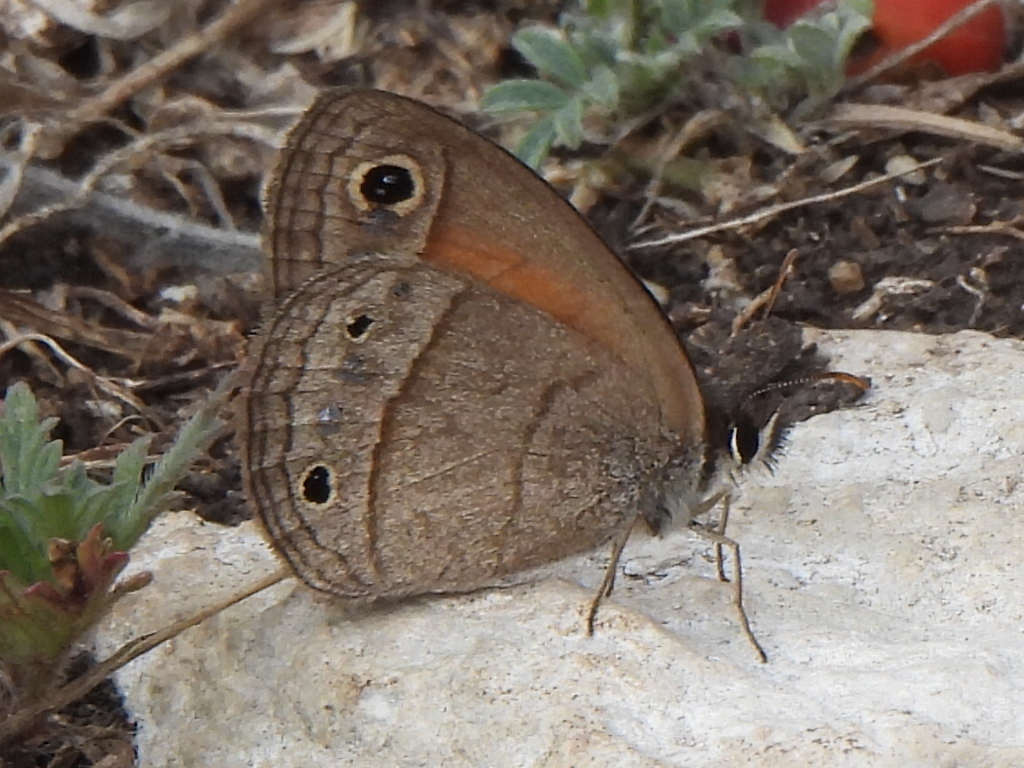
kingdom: Animalia
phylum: Arthropoda
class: Insecta
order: Lepidoptera
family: Nymphalidae
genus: Euptychia
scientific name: Euptychia Cissia rubricata
